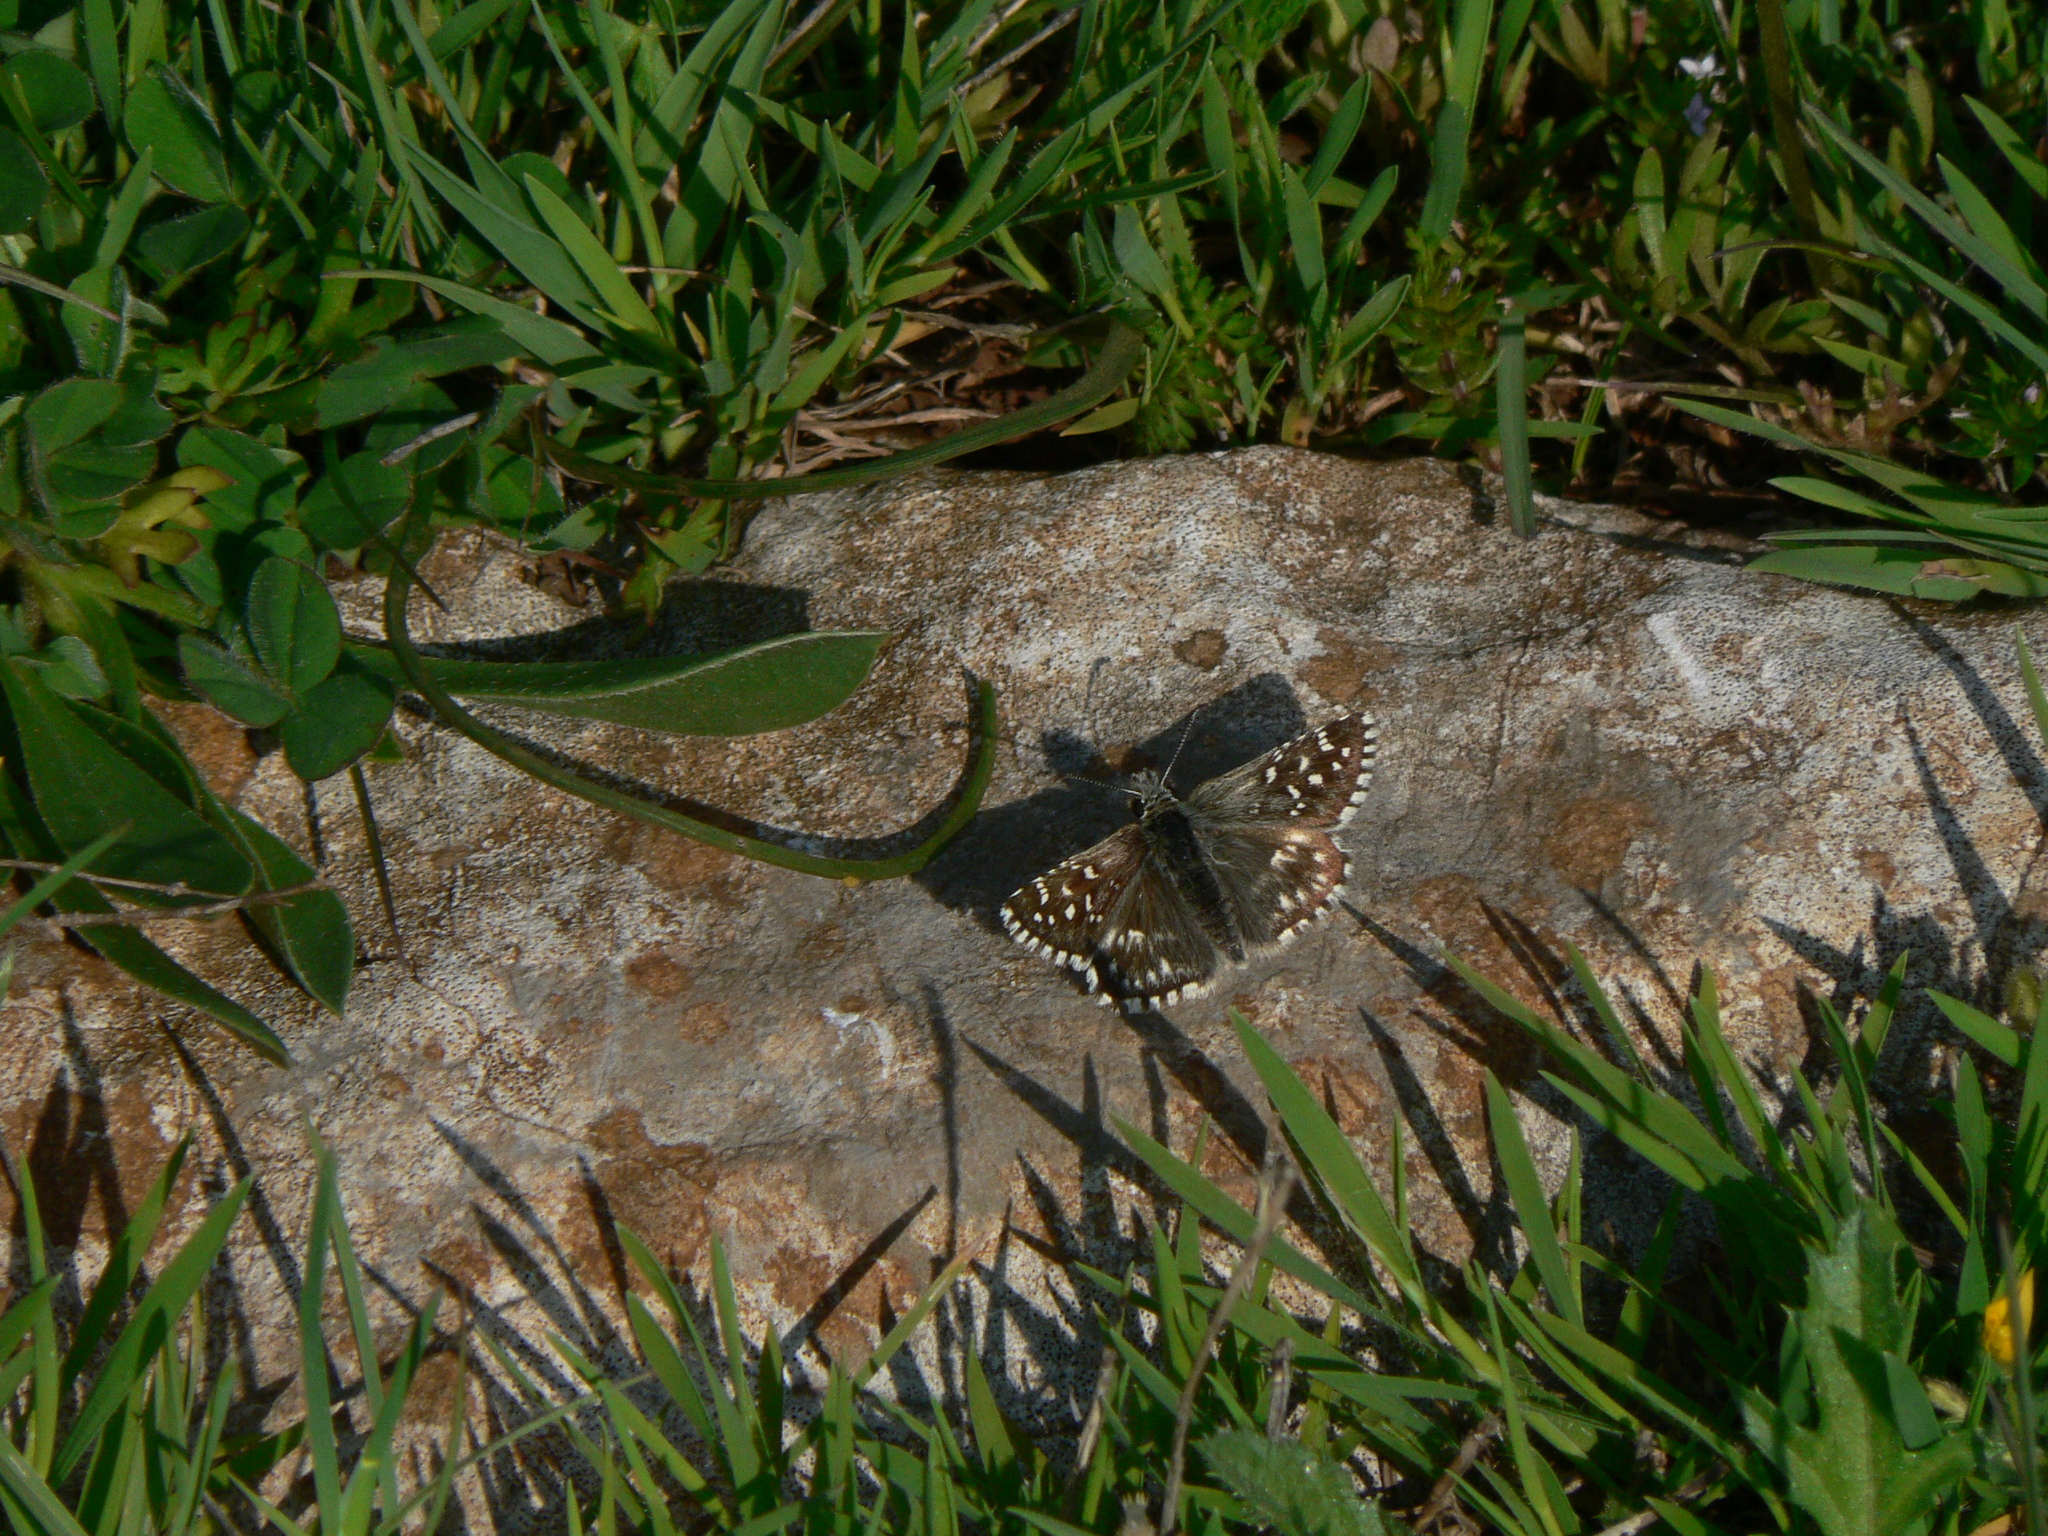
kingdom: Animalia
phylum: Arthropoda
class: Insecta
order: Lepidoptera
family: Hesperiidae
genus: Pyrgus
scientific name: Pyrgus malvoides
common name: Southern grizzled skipper
